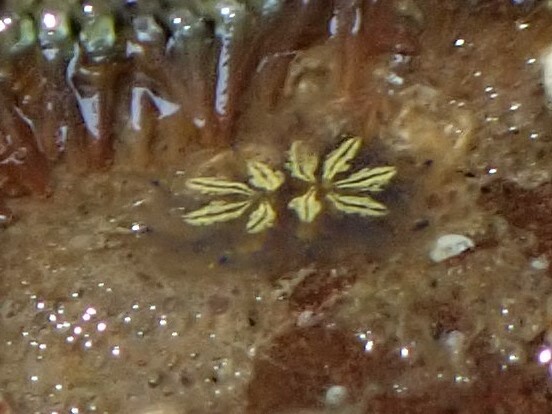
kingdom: Animalia
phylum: Chordata
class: Ascidiacea
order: Stolidobranchia
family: Styelidae
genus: Botryllus
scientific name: Botryllus schlosseri
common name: Golden star tunicate
